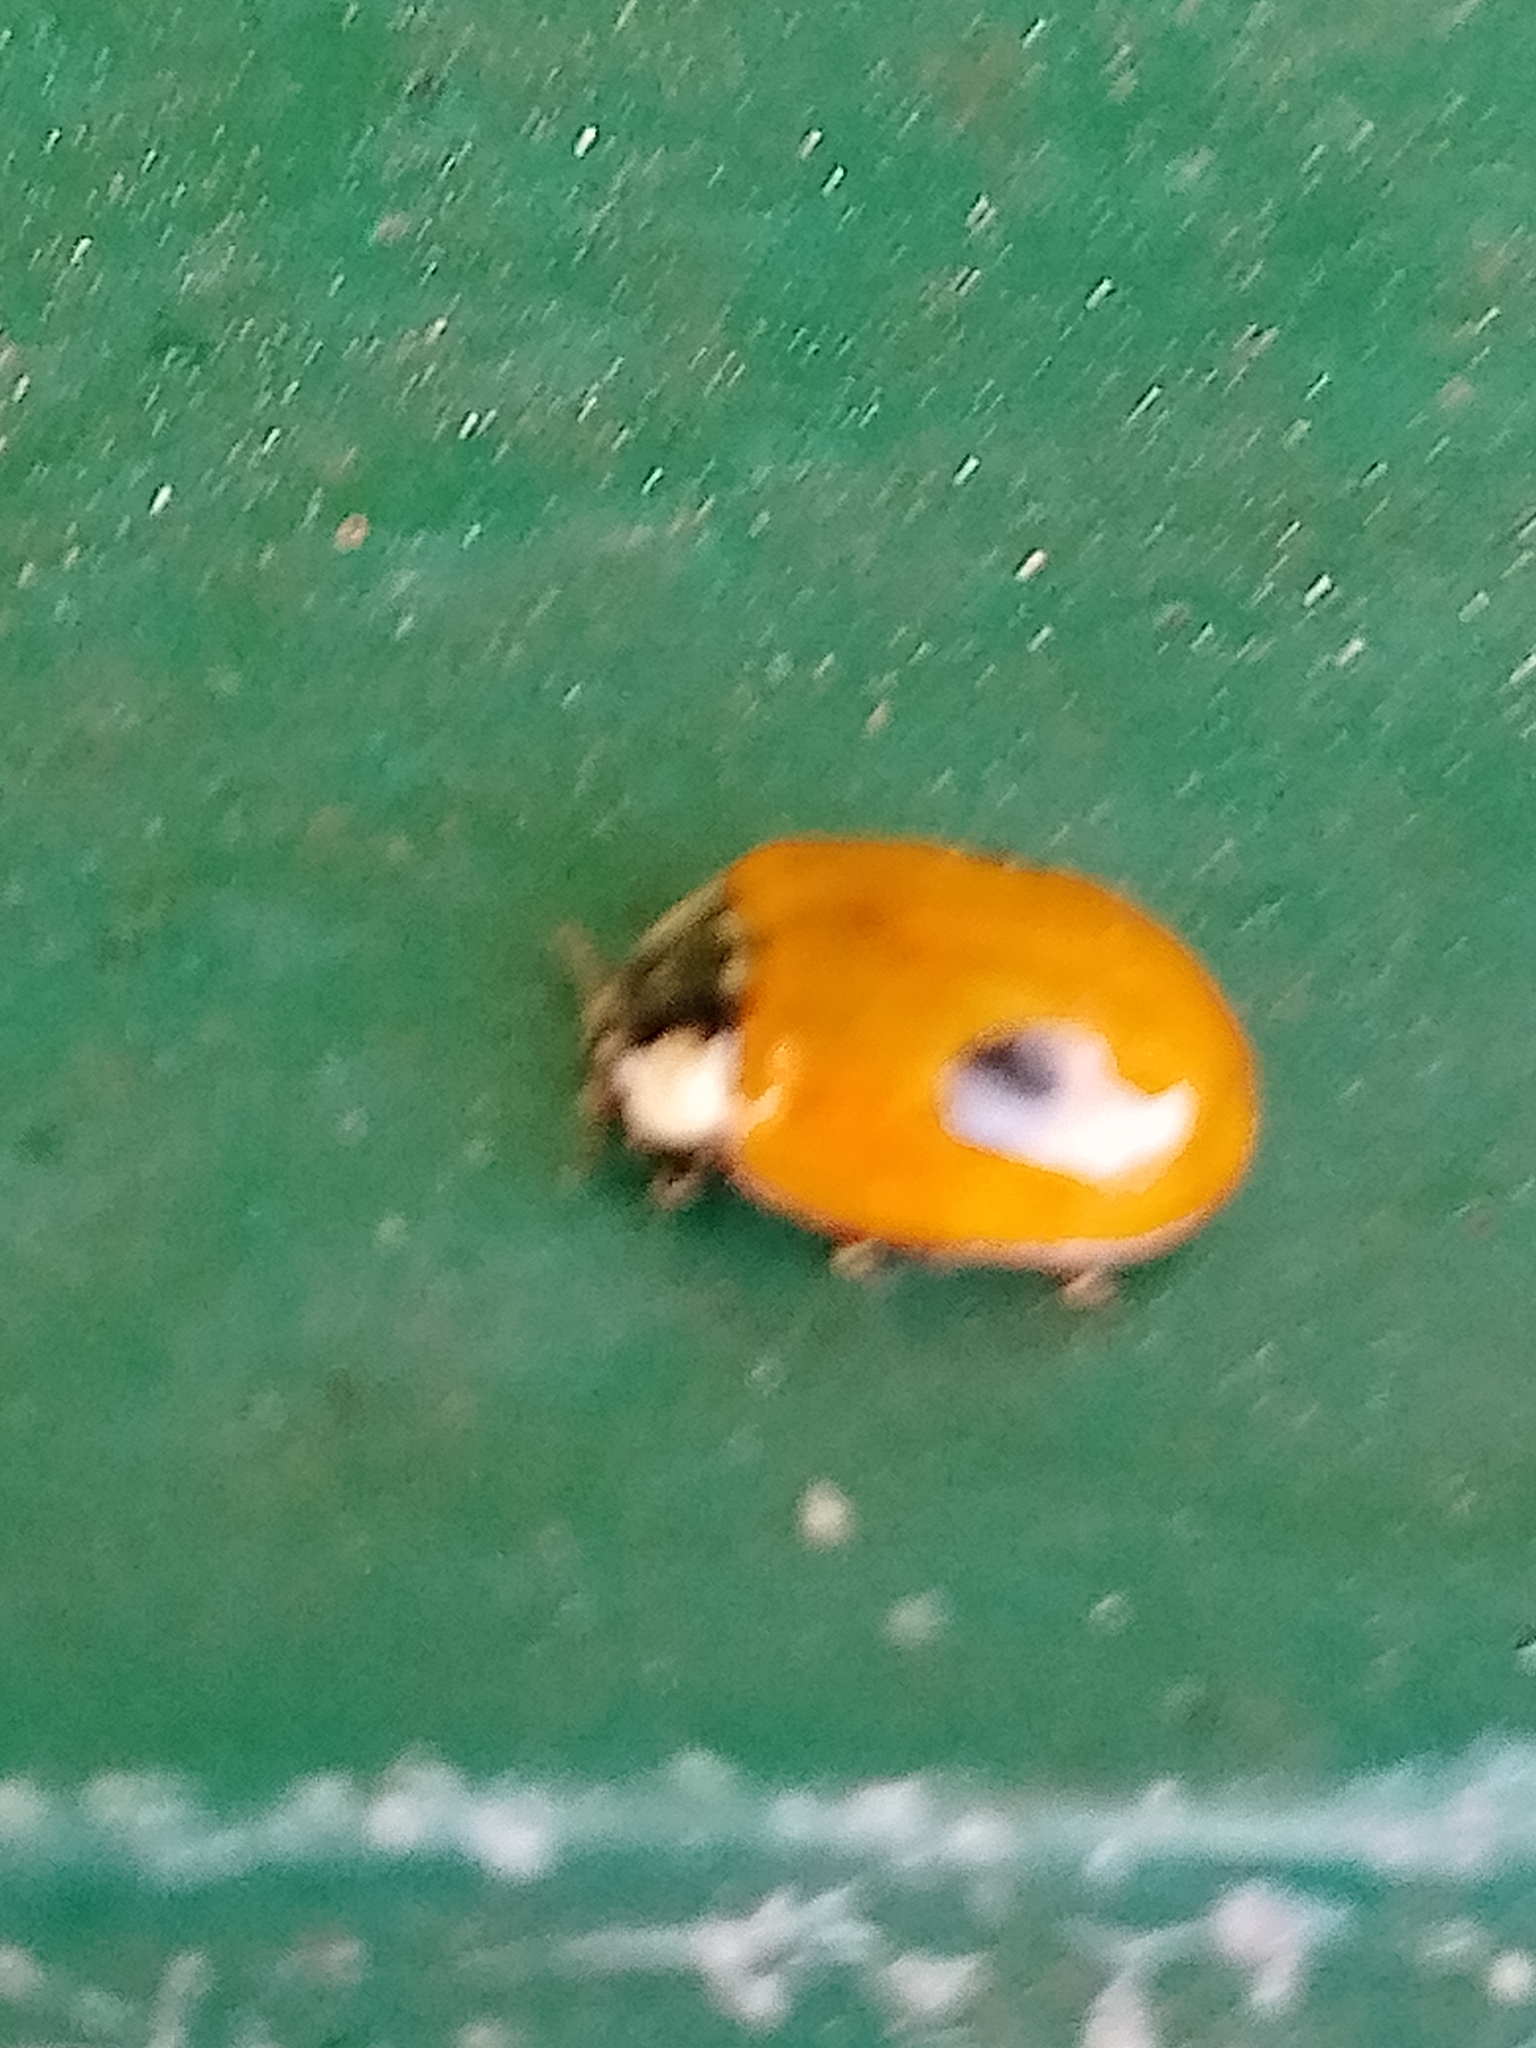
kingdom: Animalia
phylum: Arthropoda
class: Insecta
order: Coleoptera
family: Coccinellidae
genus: Adalia
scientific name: Adalia bipunctata
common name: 2-spot ladybird
